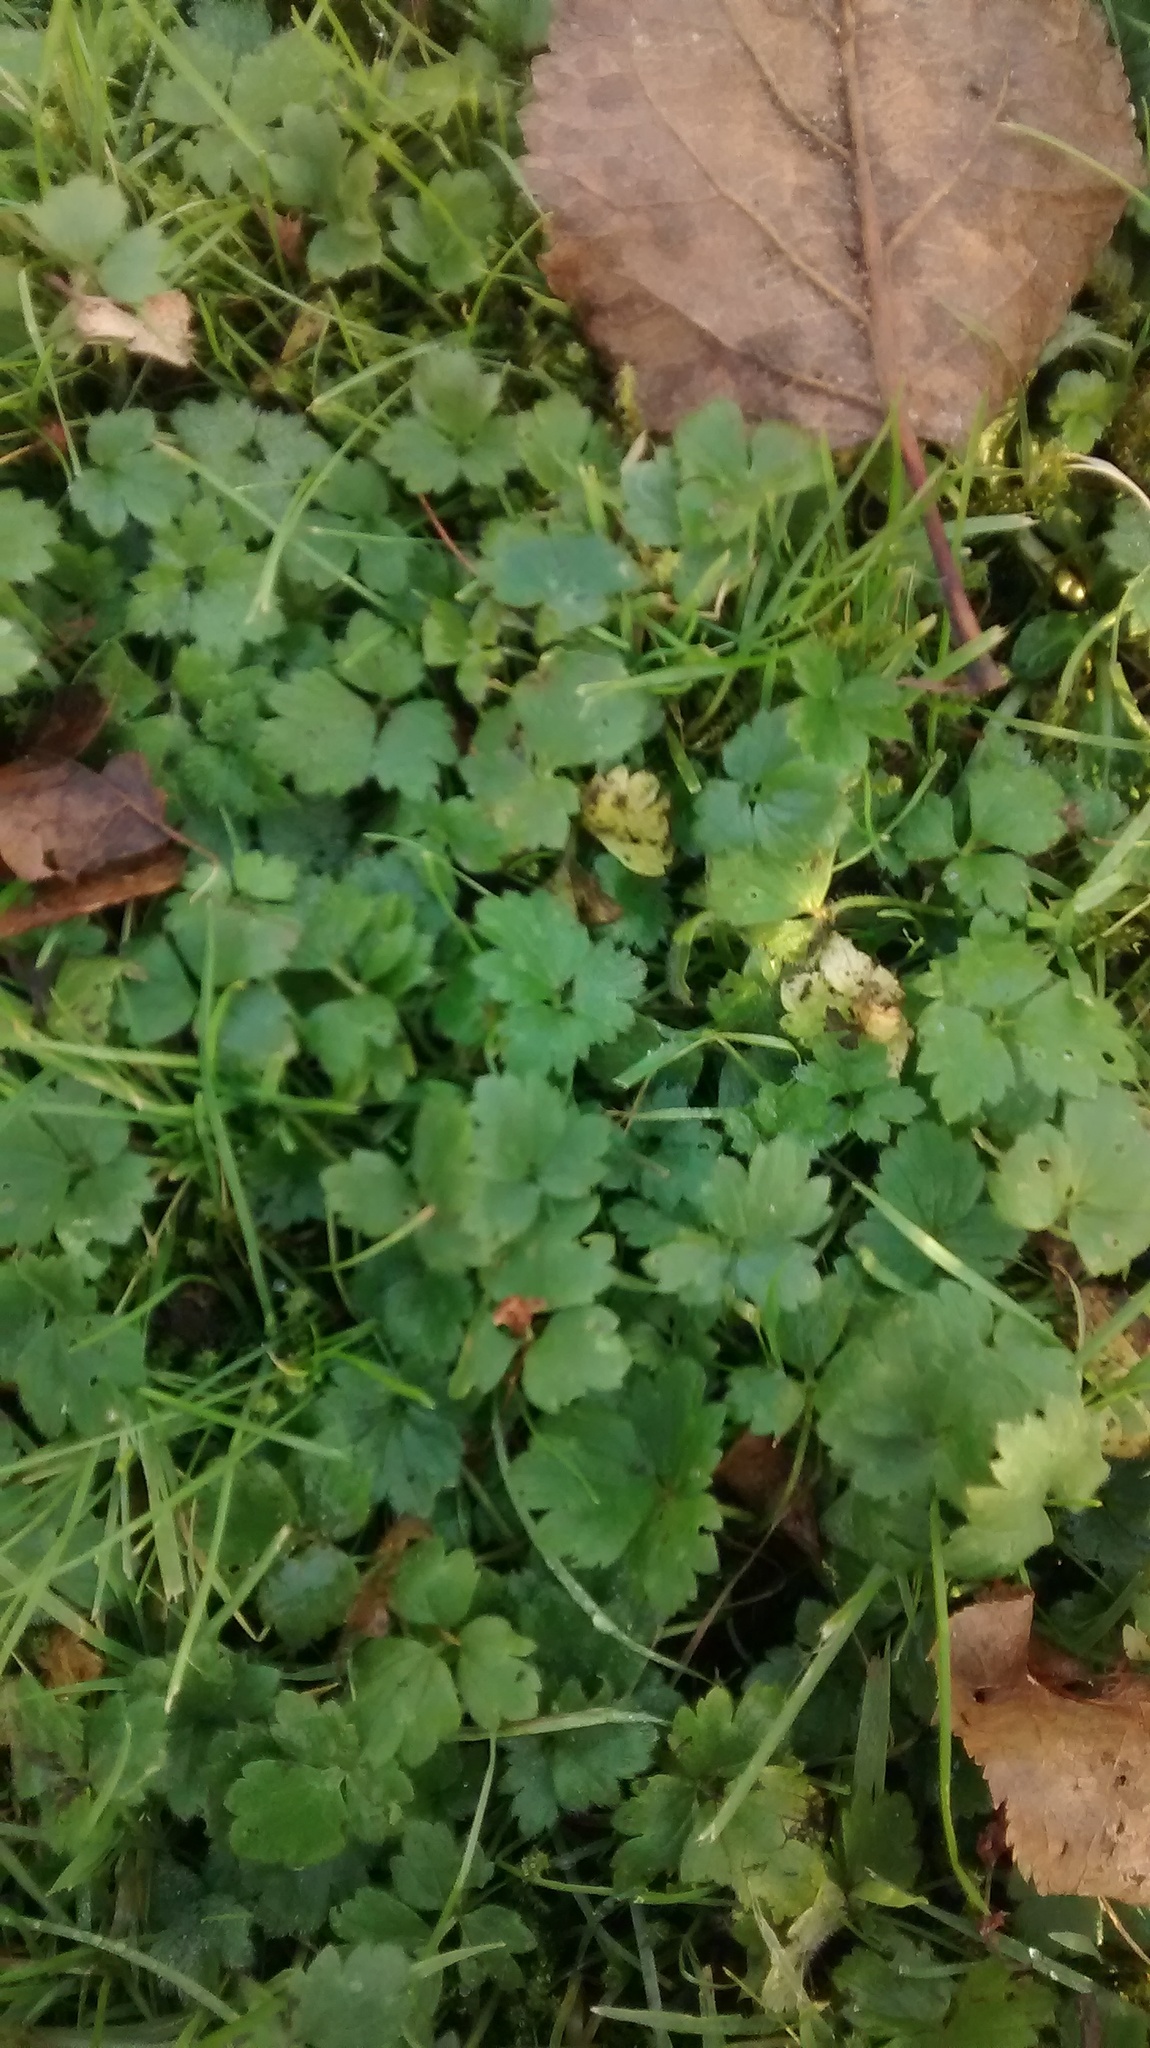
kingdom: Plantae
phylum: Tracheophyta
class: Magnoliopsida
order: Ranunculales
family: Ranunculaceae
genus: Ranunculus
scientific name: Ranunculus repens
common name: Creeping buttercup
